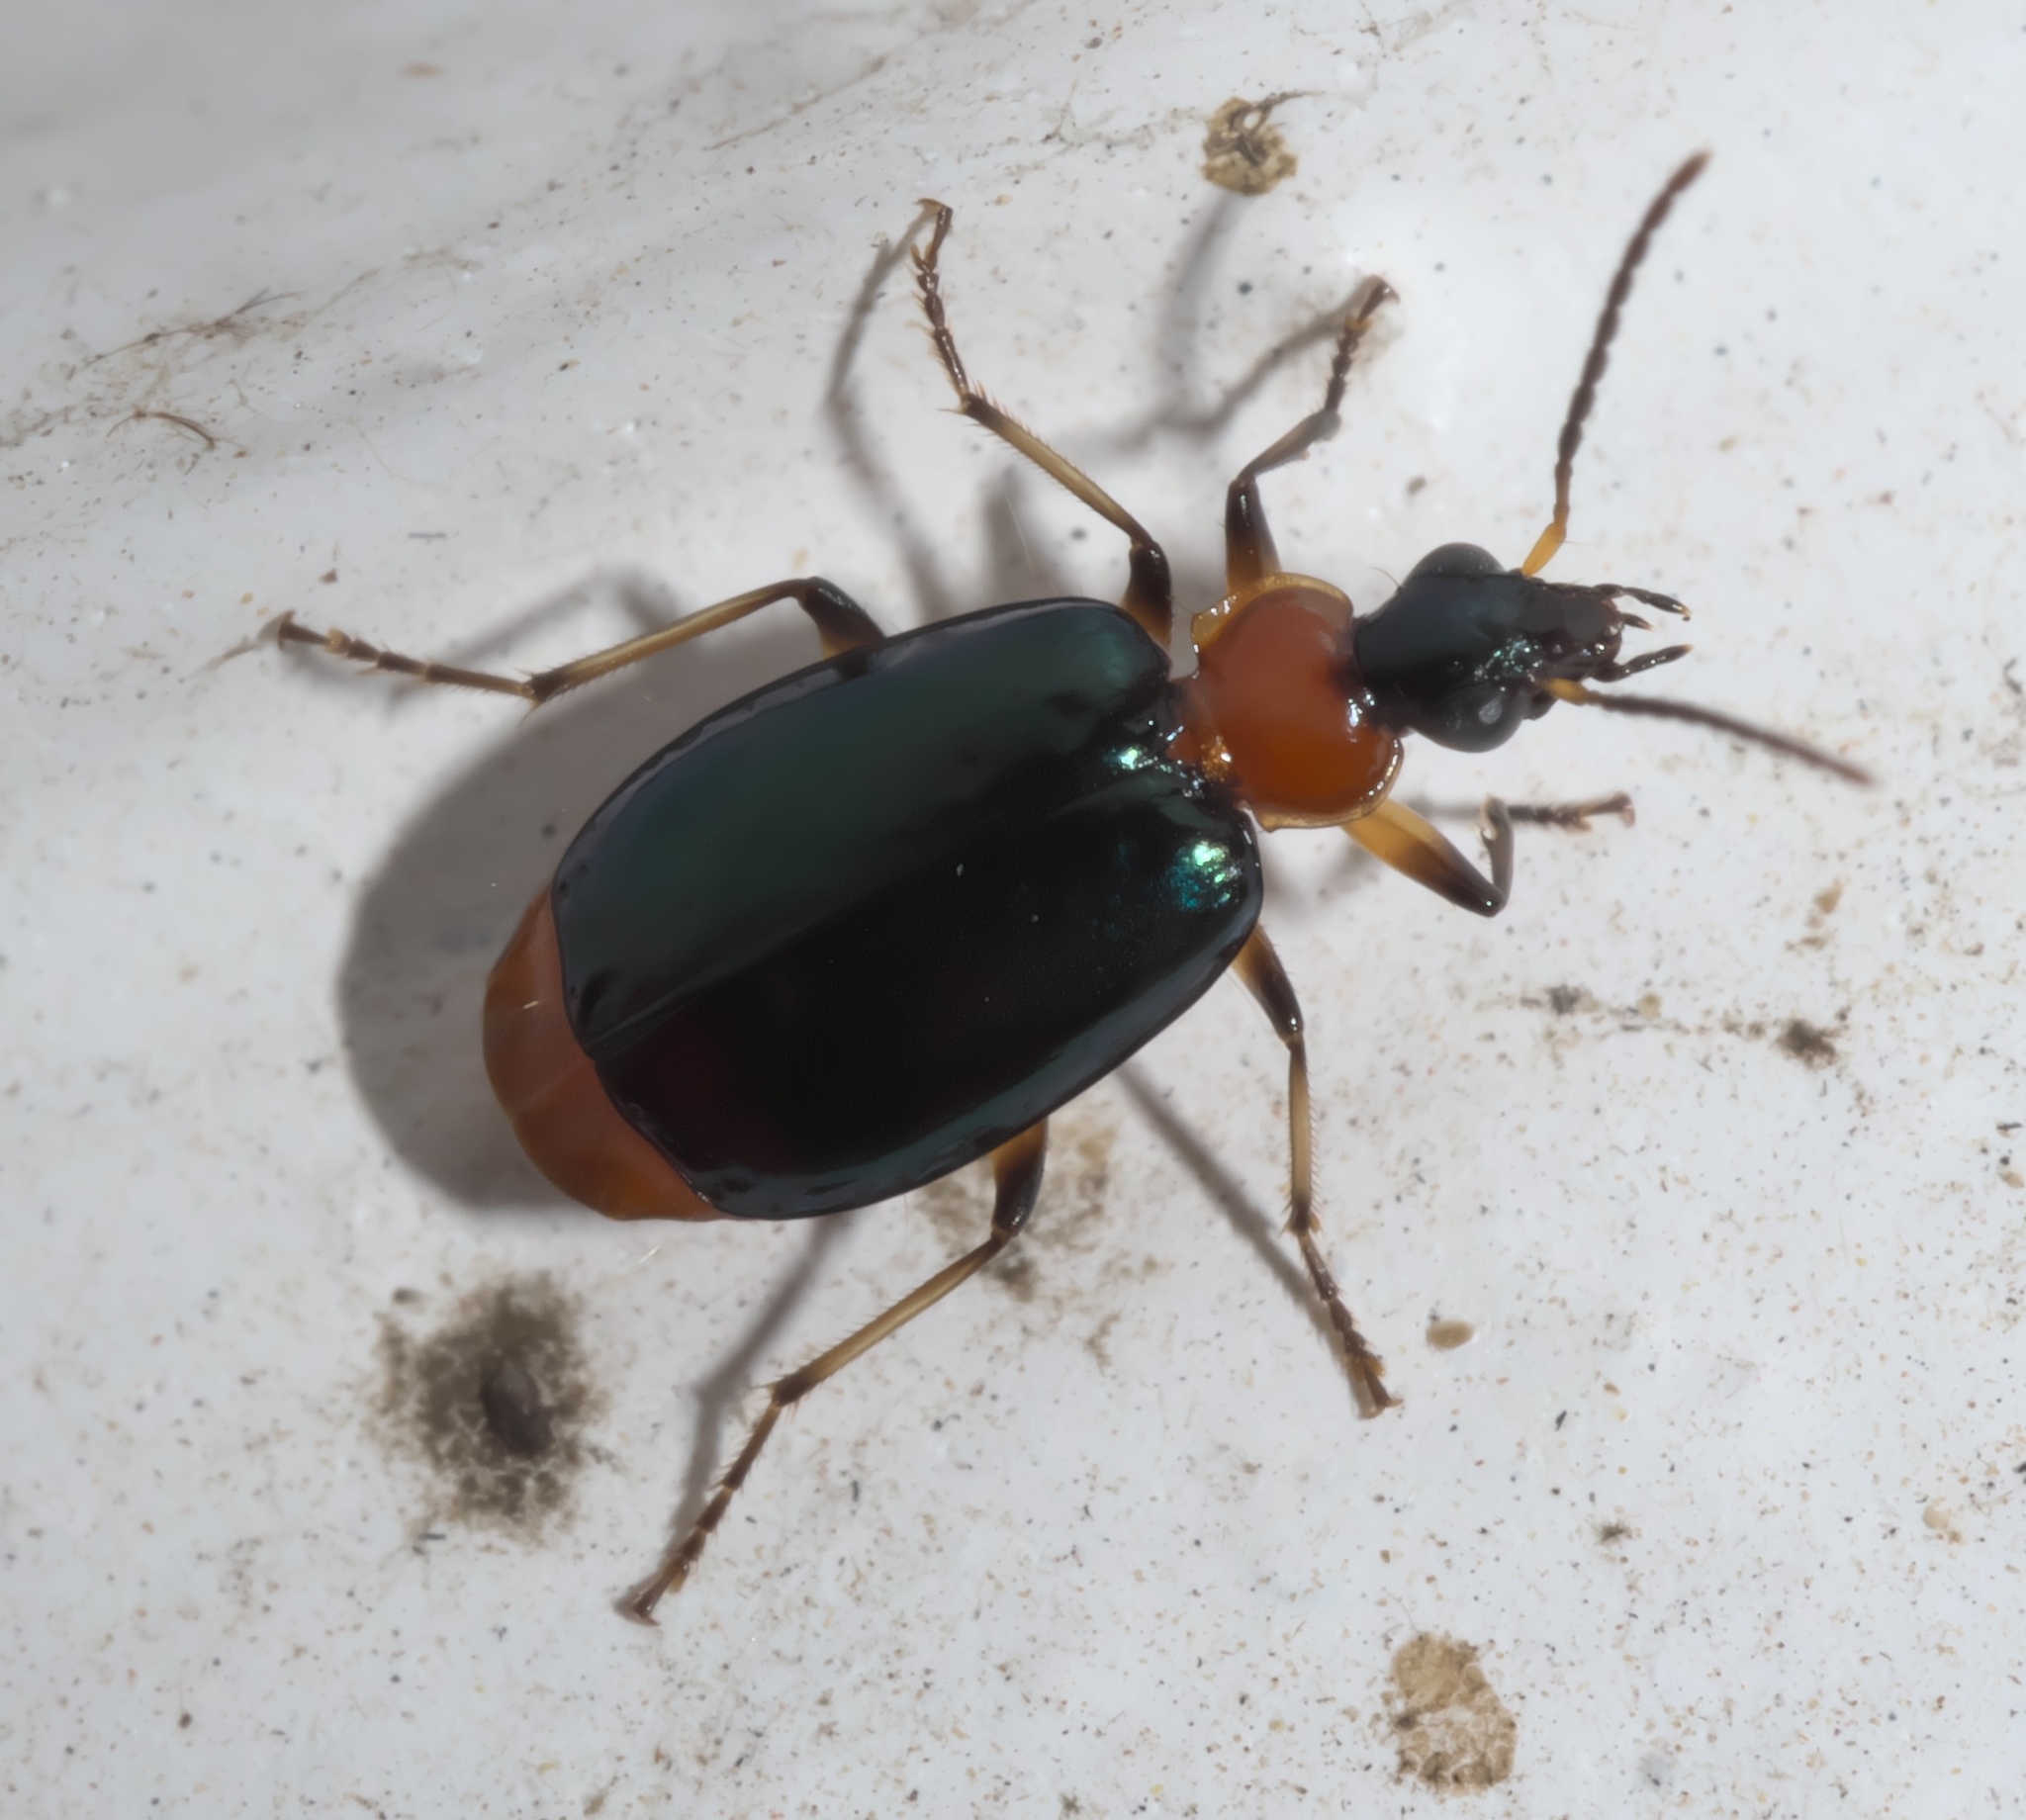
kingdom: Animalia
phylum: Arthropoda
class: Insecta
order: Coleoptera
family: Carabidae
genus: Lebia
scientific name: Lebia viridipennis
